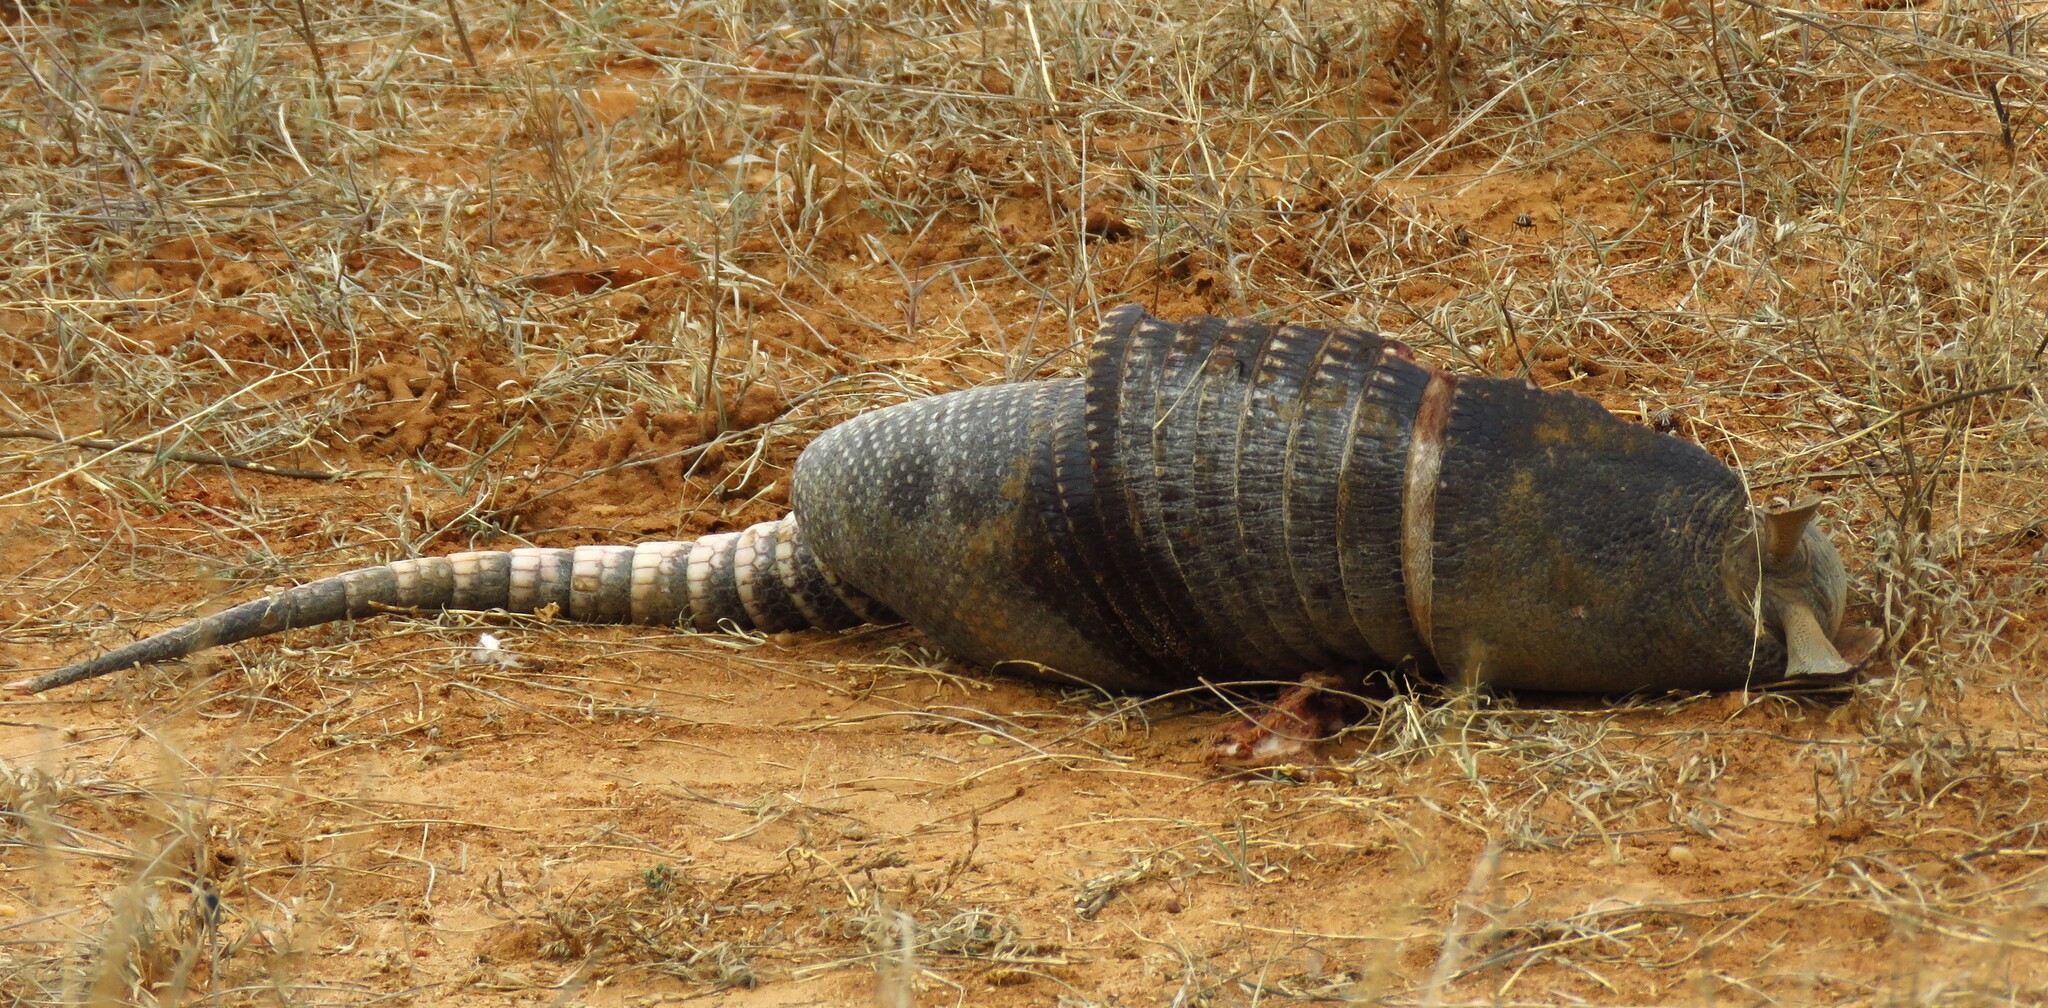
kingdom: Animalia
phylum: Chordata
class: Mammalia
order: Cingulata
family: Dasypodidae
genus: Dasypus
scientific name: Dasypus novemcinctus
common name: Nine-banded armadillo
